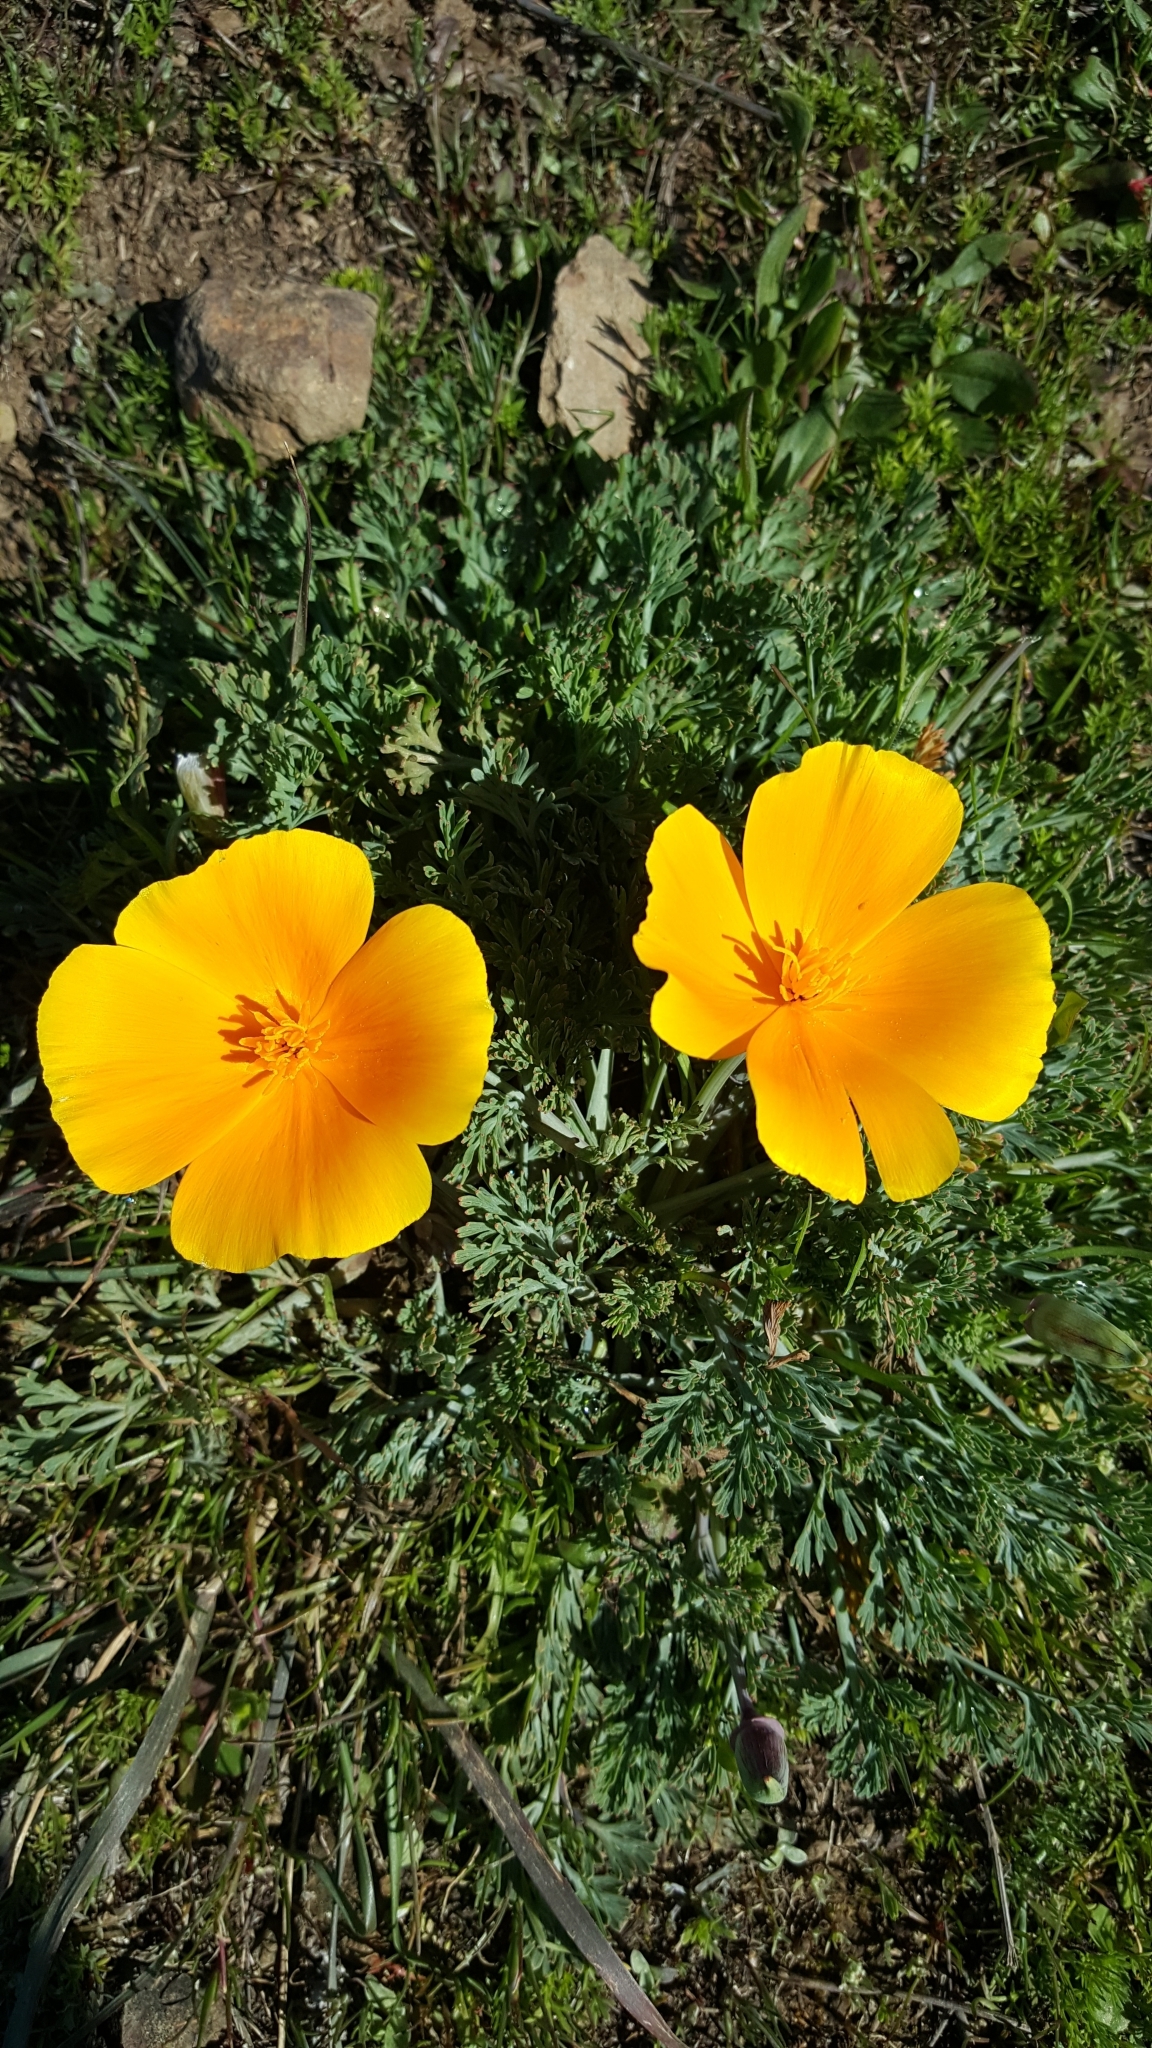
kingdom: Plantae
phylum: Tracheophyta
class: Magnoliopsida
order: Ranunculales
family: Papaveraceae
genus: Eschscholzia
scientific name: Eschscholzia californica
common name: California poppy
